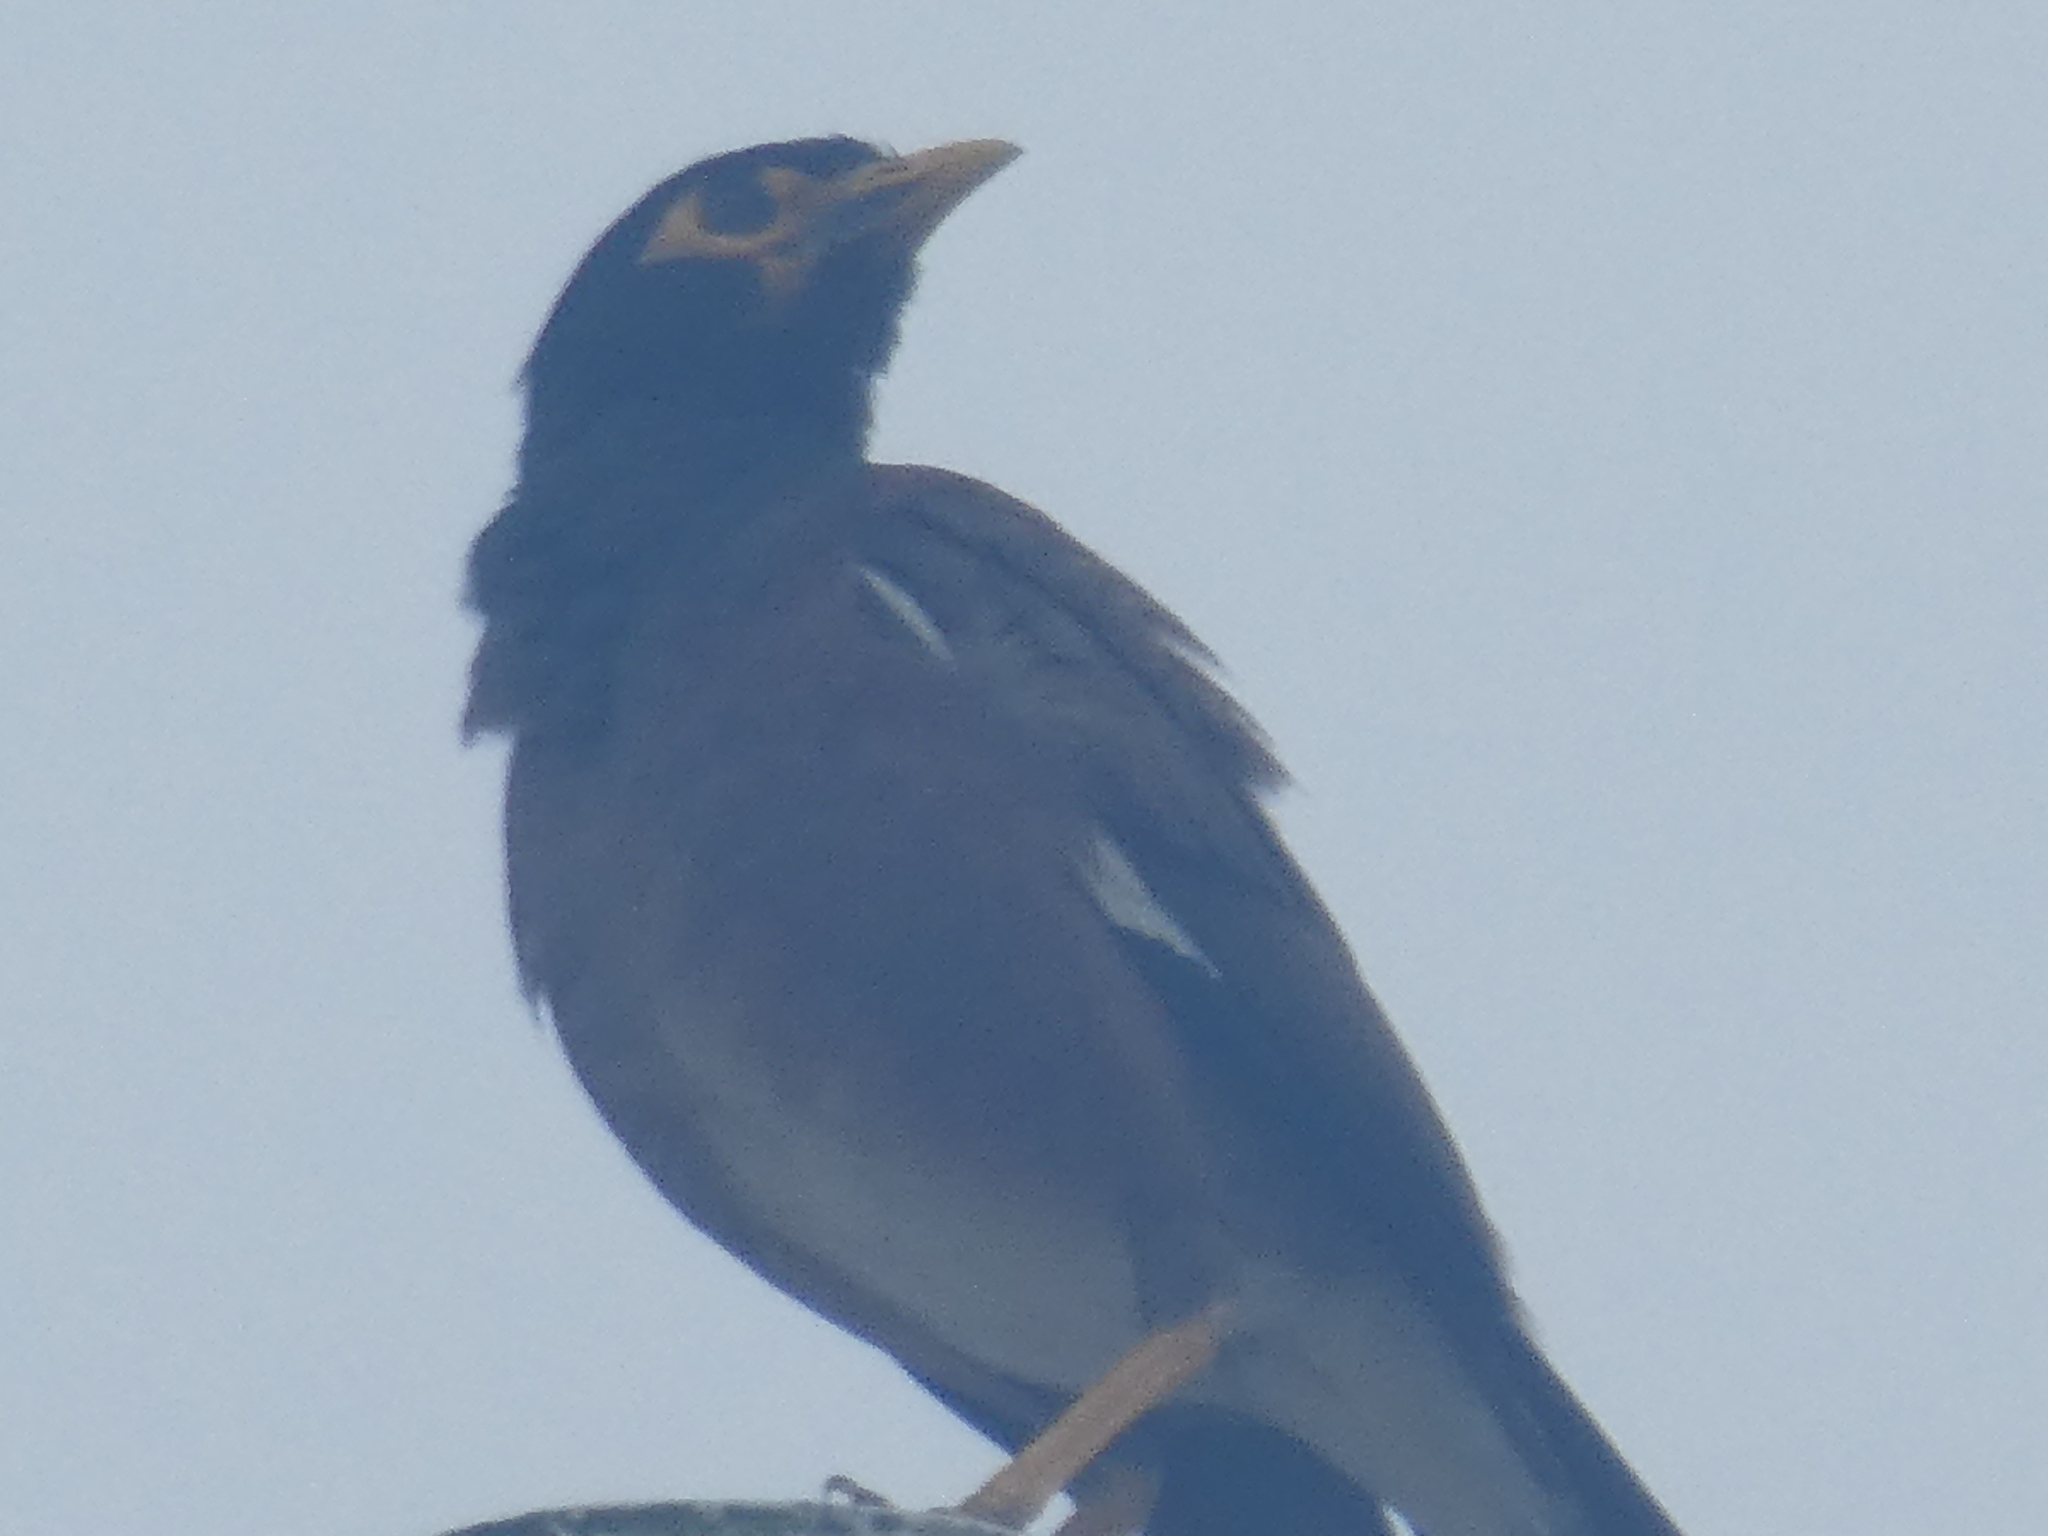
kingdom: Animalia
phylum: Chordata
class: Aves
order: Passeriformes
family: Sturnidae
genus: Acridotheres
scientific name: Acridotheres tristis
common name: Common myna
